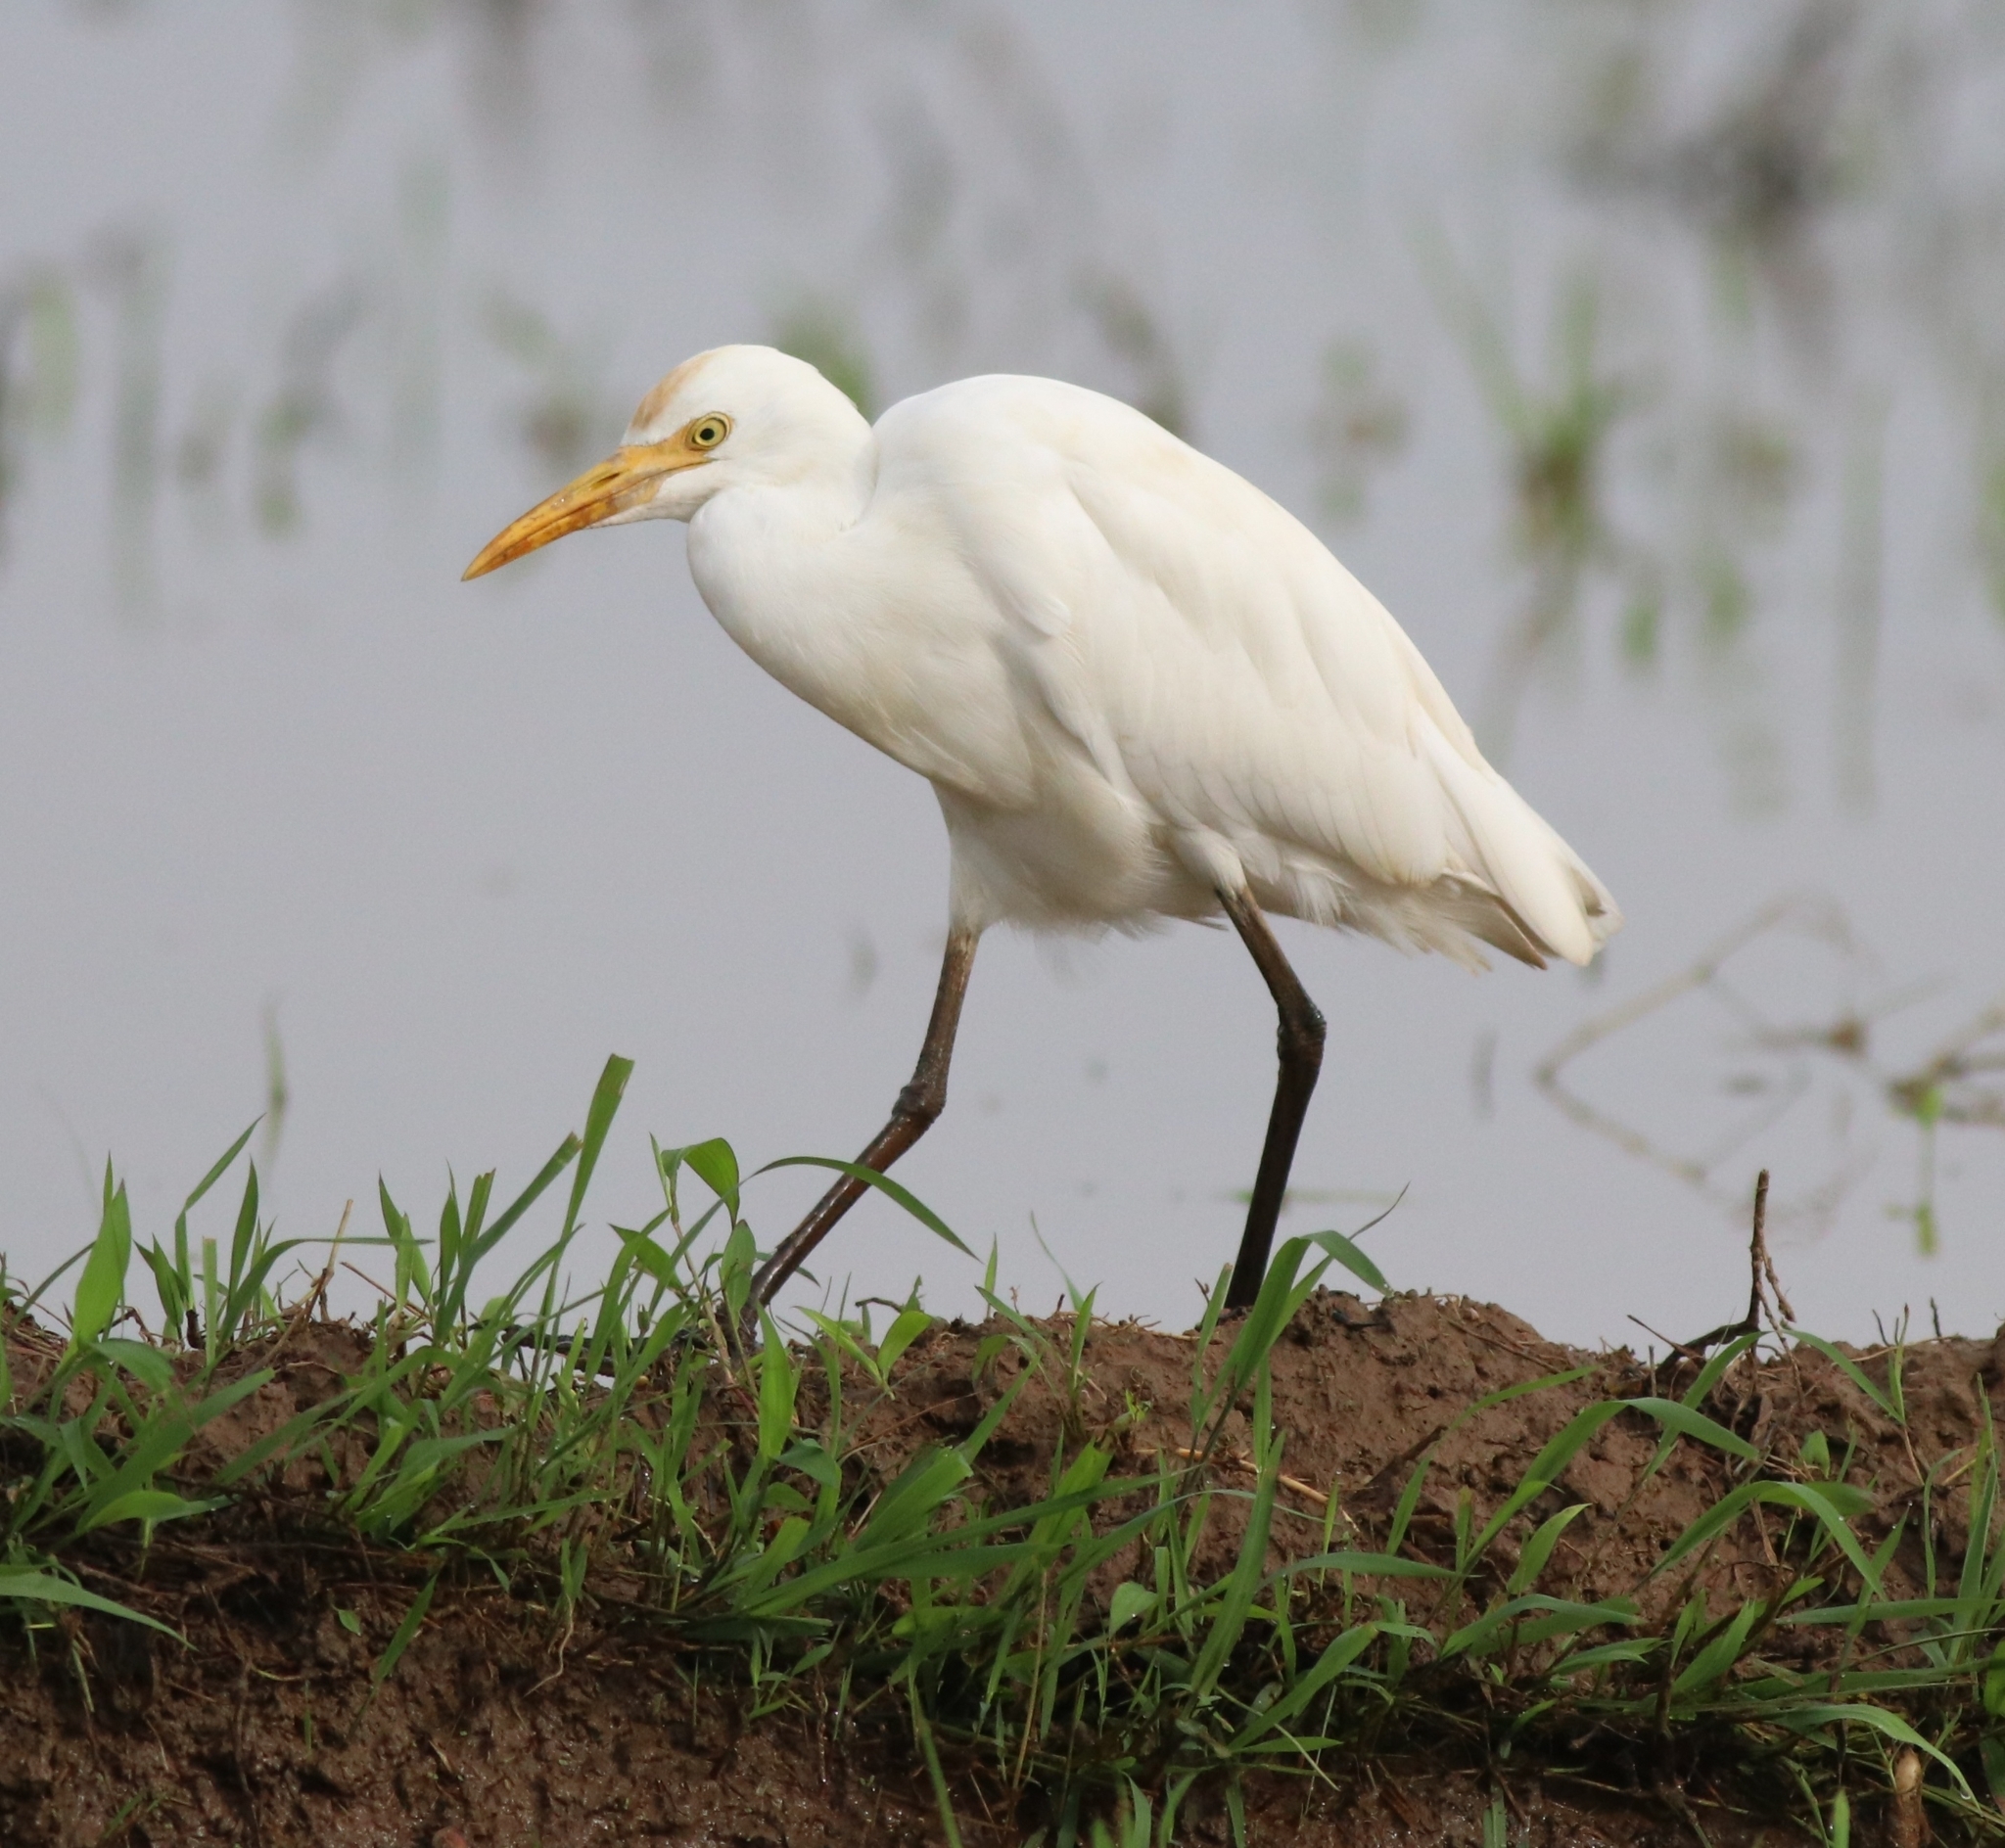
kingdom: Animalia
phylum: Chordata
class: Aves
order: Pelecaniformes
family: Ardeidae
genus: Bubulcus
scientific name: Bubulcus coromandus
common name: Eastern cattle egret
